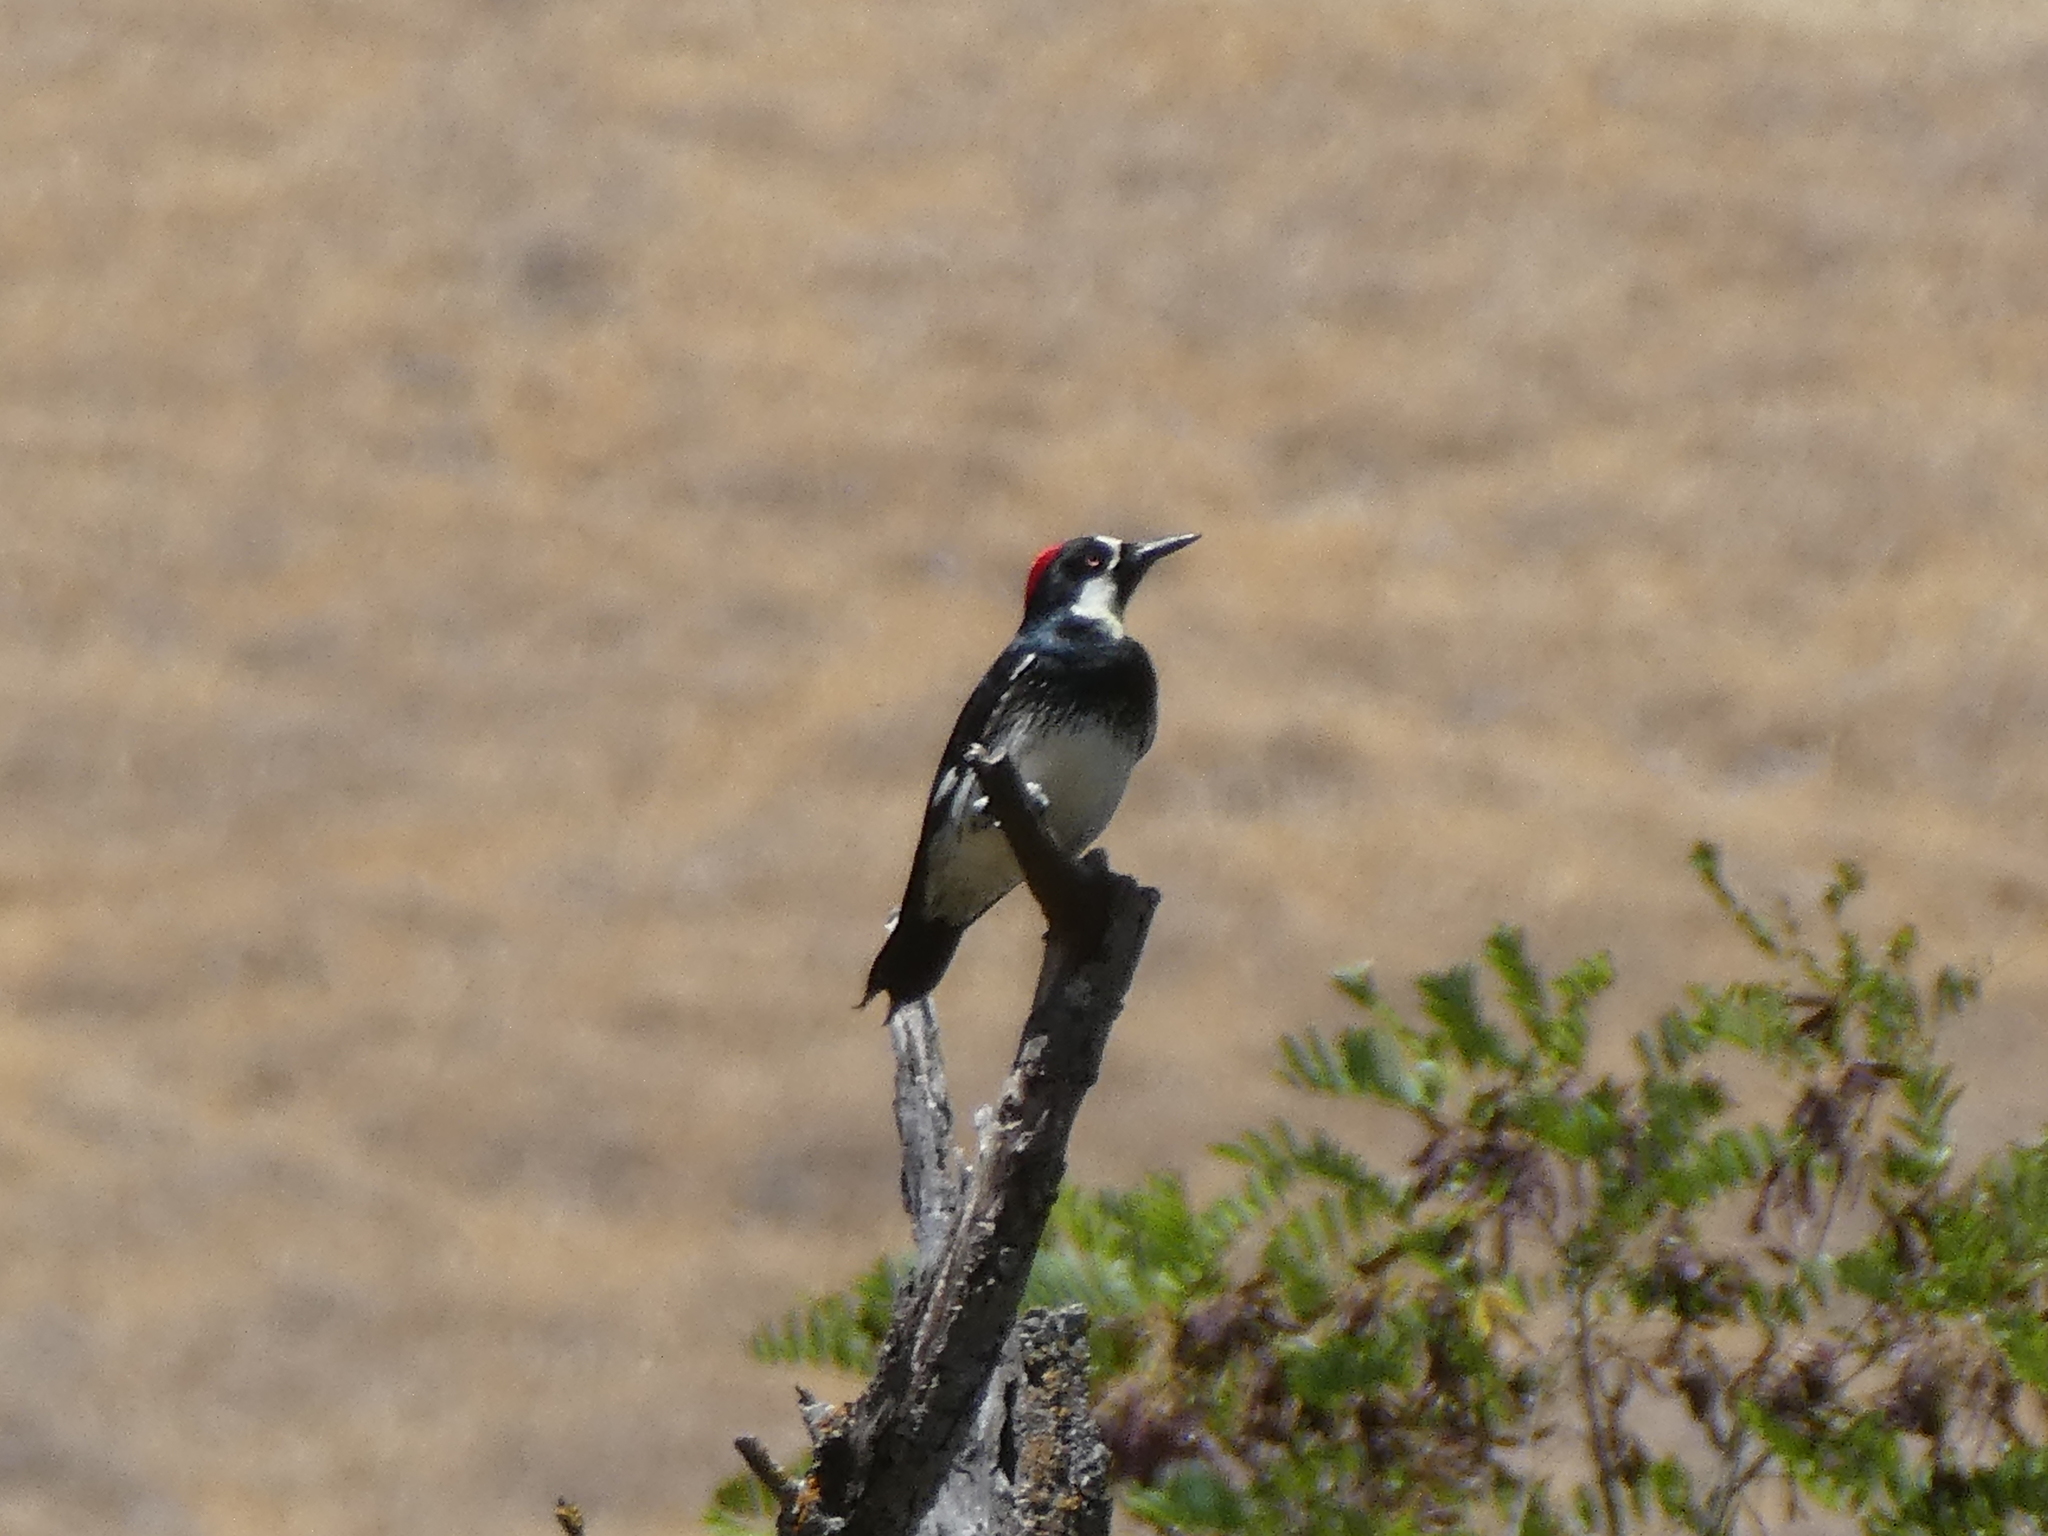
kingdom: Animalia
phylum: Chordata
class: Aves
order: Piciformes
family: Picidae
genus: Melanerpes
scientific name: Melanerpes formicivorus
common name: Acorn woodpecker
